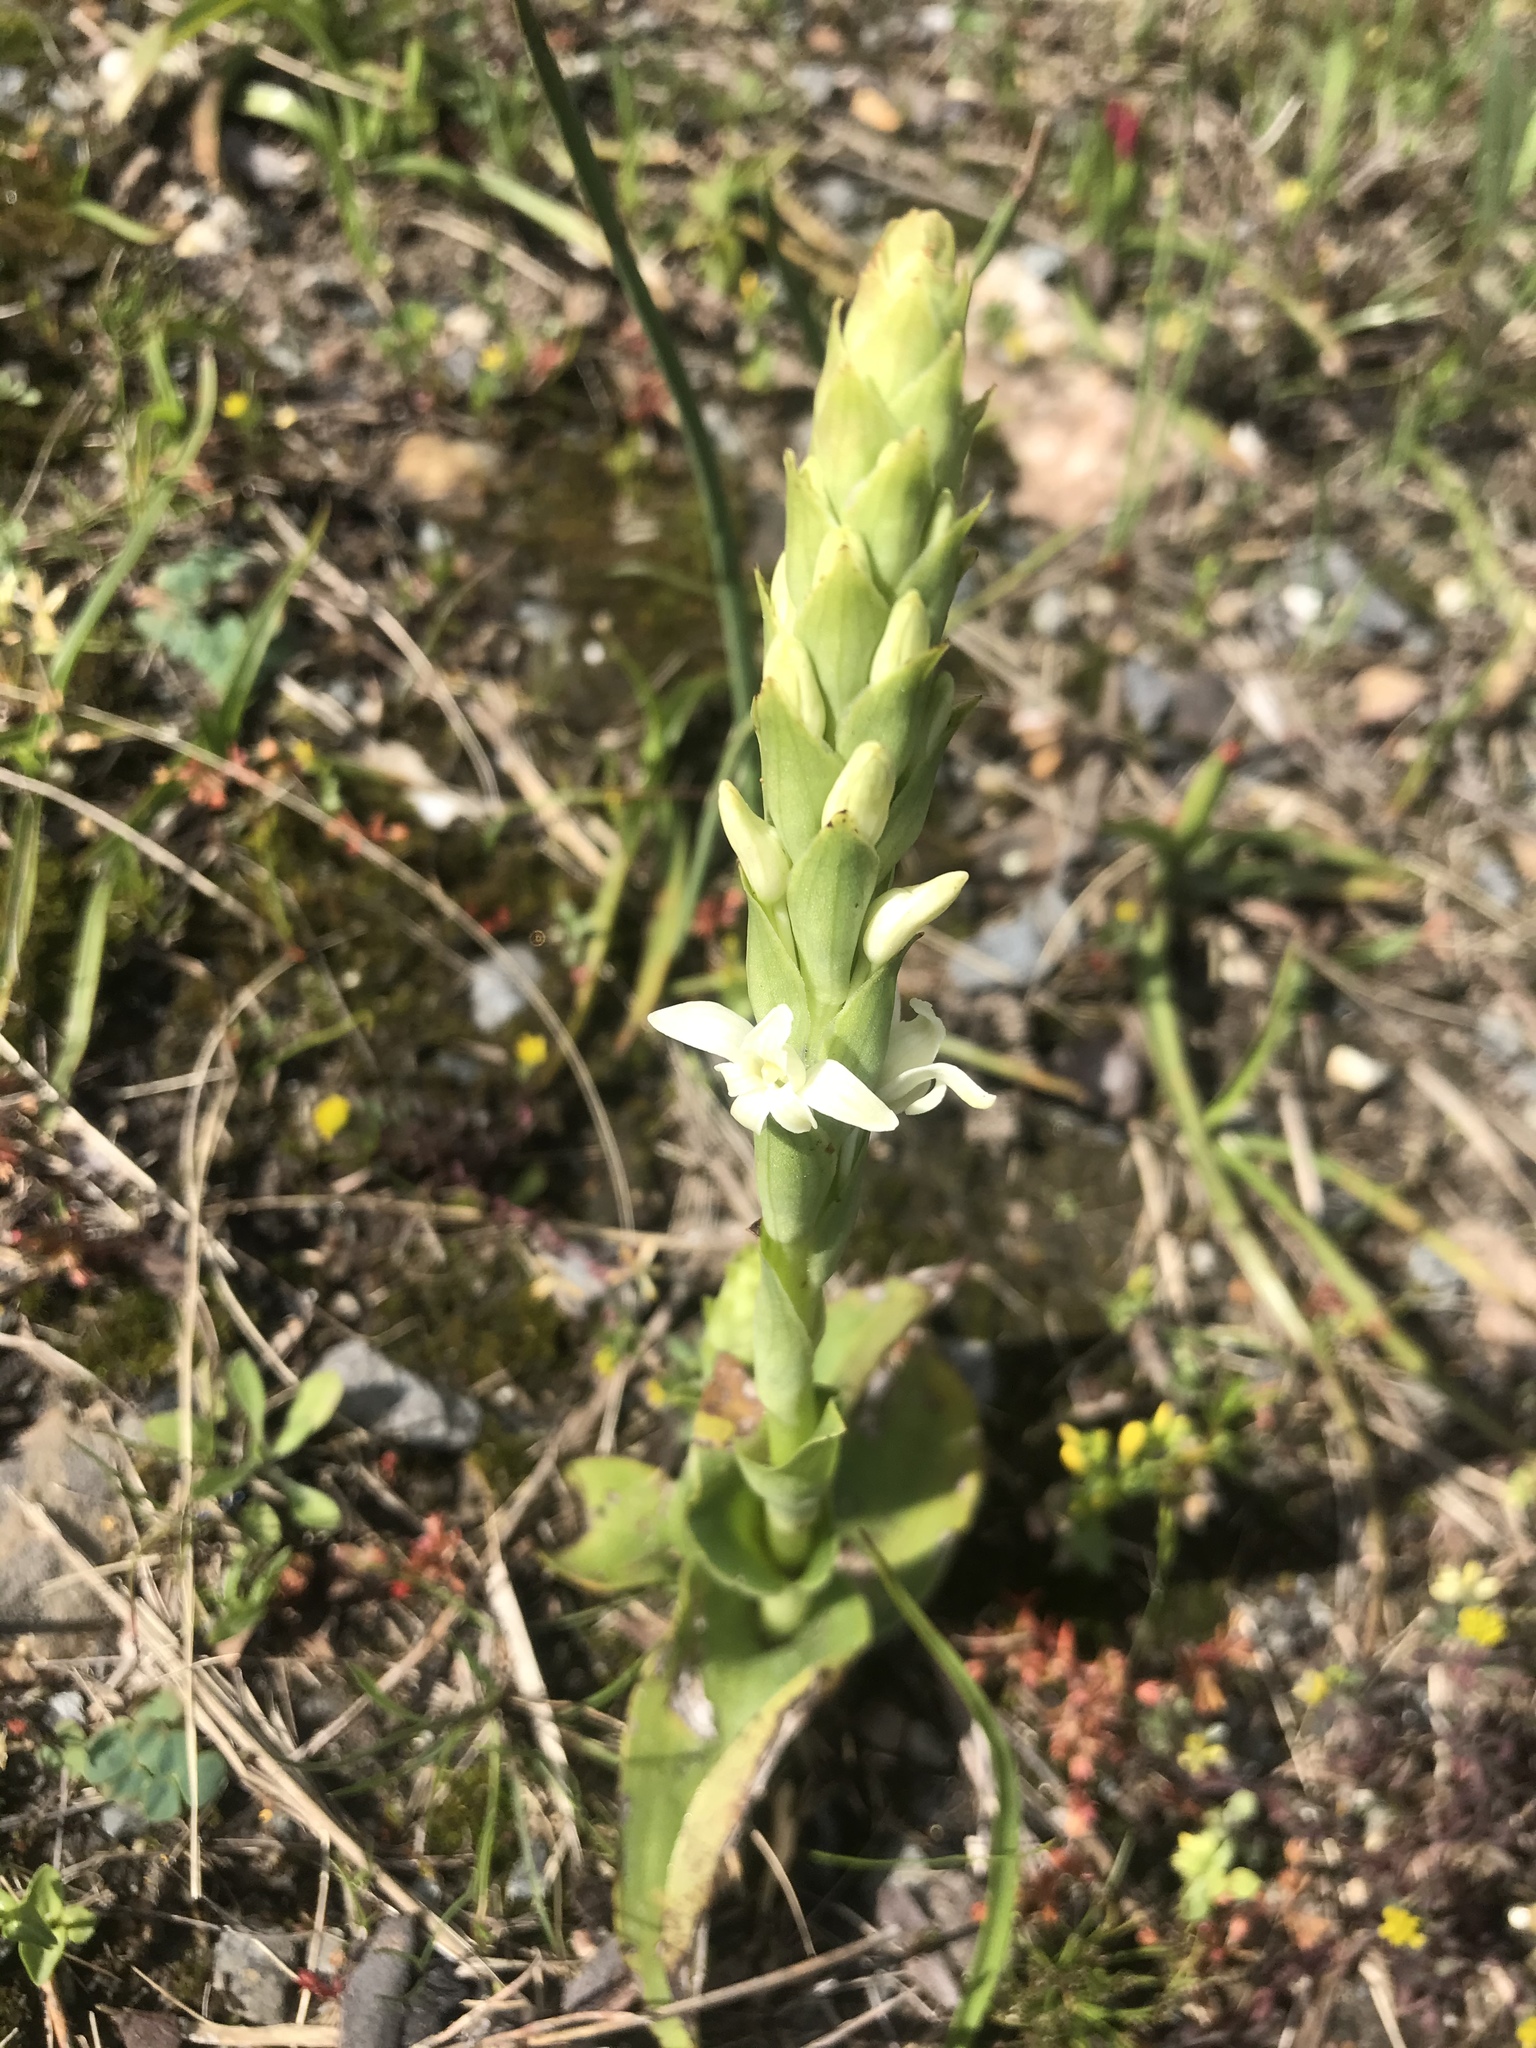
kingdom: Plantae
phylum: Tracheophyta
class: Liliopsida
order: Asparagales
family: Orchidaceae
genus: Satyrium
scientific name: Satyrium stenopetalum
